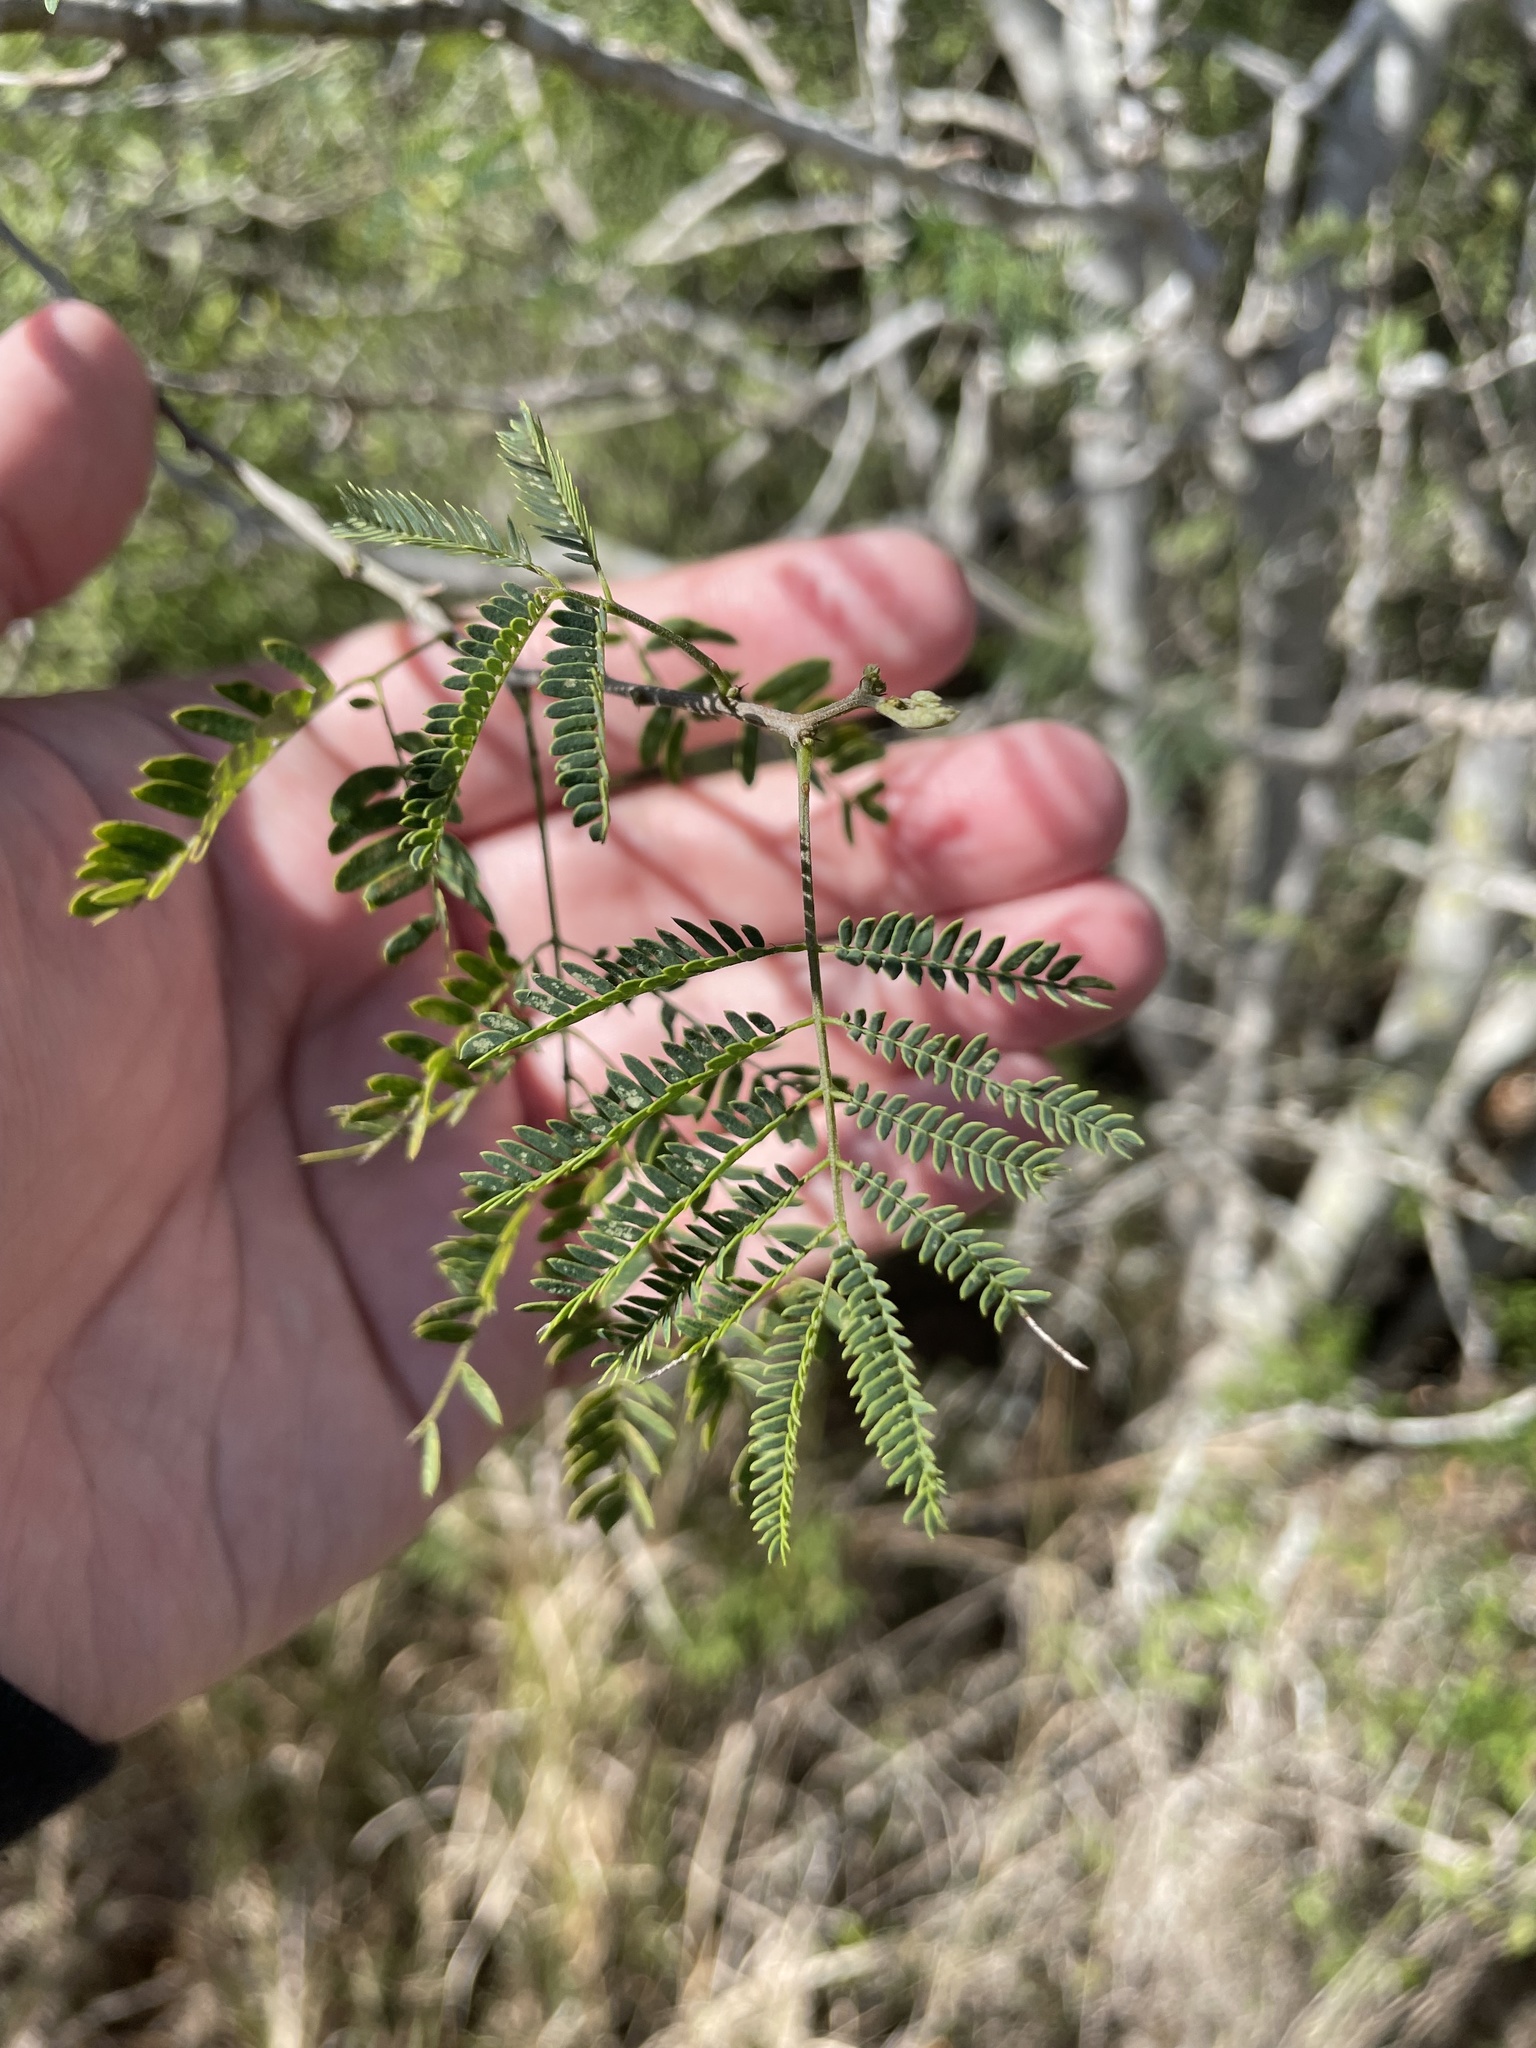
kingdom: Plantae
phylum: Tracheophyta
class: Magnoliopsida
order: Fabales
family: Fabaceae
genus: Havardia
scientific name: Havardia pallens
